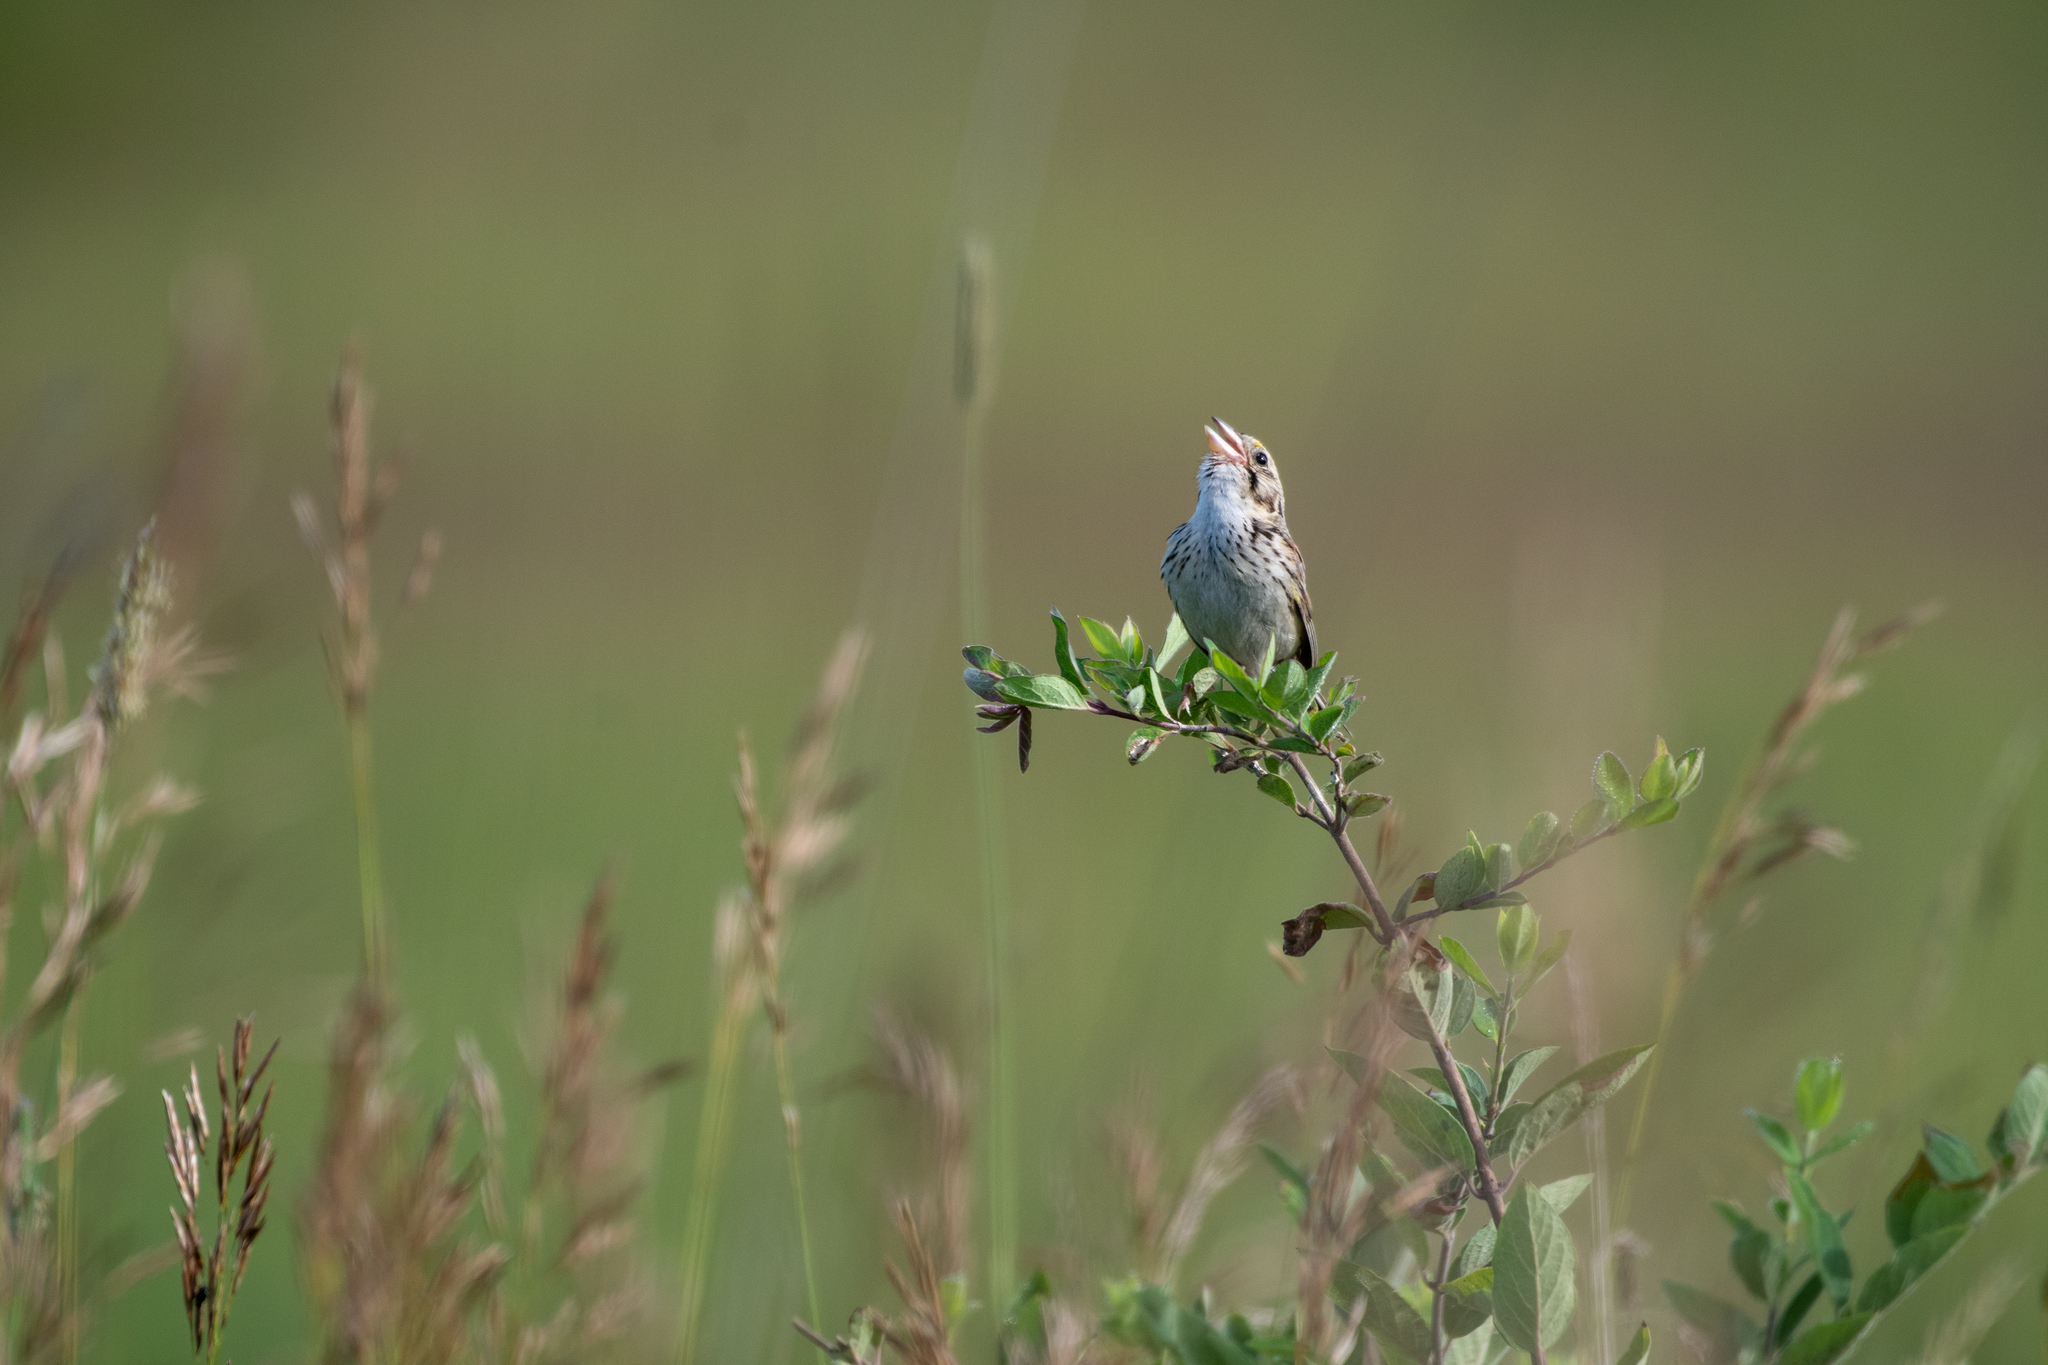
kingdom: Animalia
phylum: Chordata
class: Aves
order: Passeriformes
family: Passerellidae
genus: Centronyx
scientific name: Centronyx henslowii
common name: Henslow's sparrow
